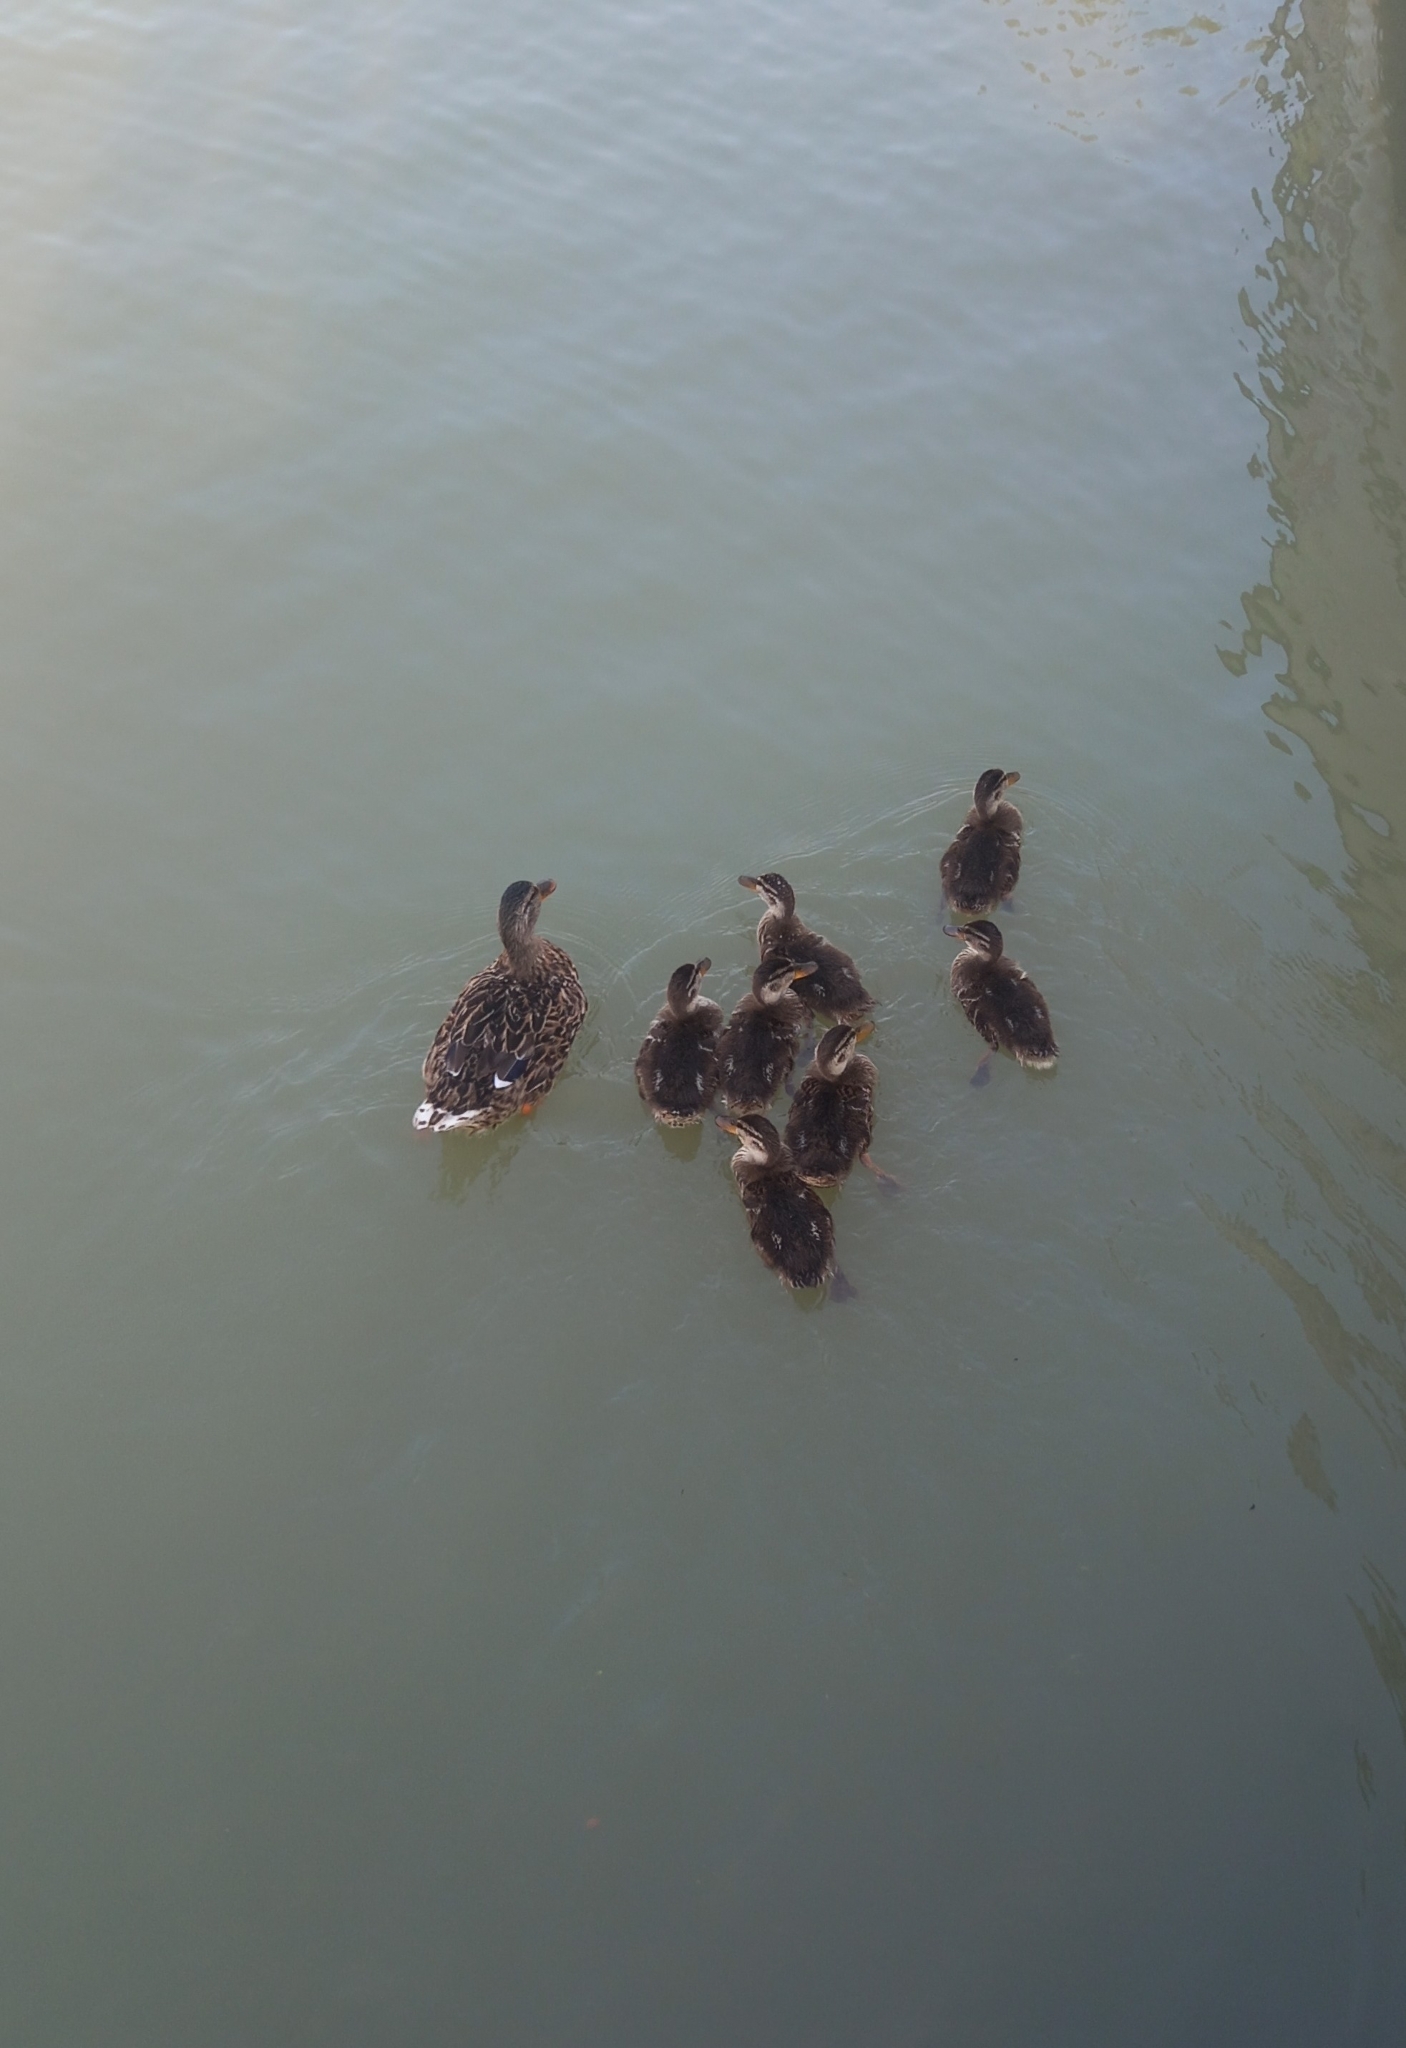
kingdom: Animalia
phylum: Chordata
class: Aves
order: Anseriformes
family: Anatidae
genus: Anas
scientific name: Anas platyrhynchos
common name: Mallard
